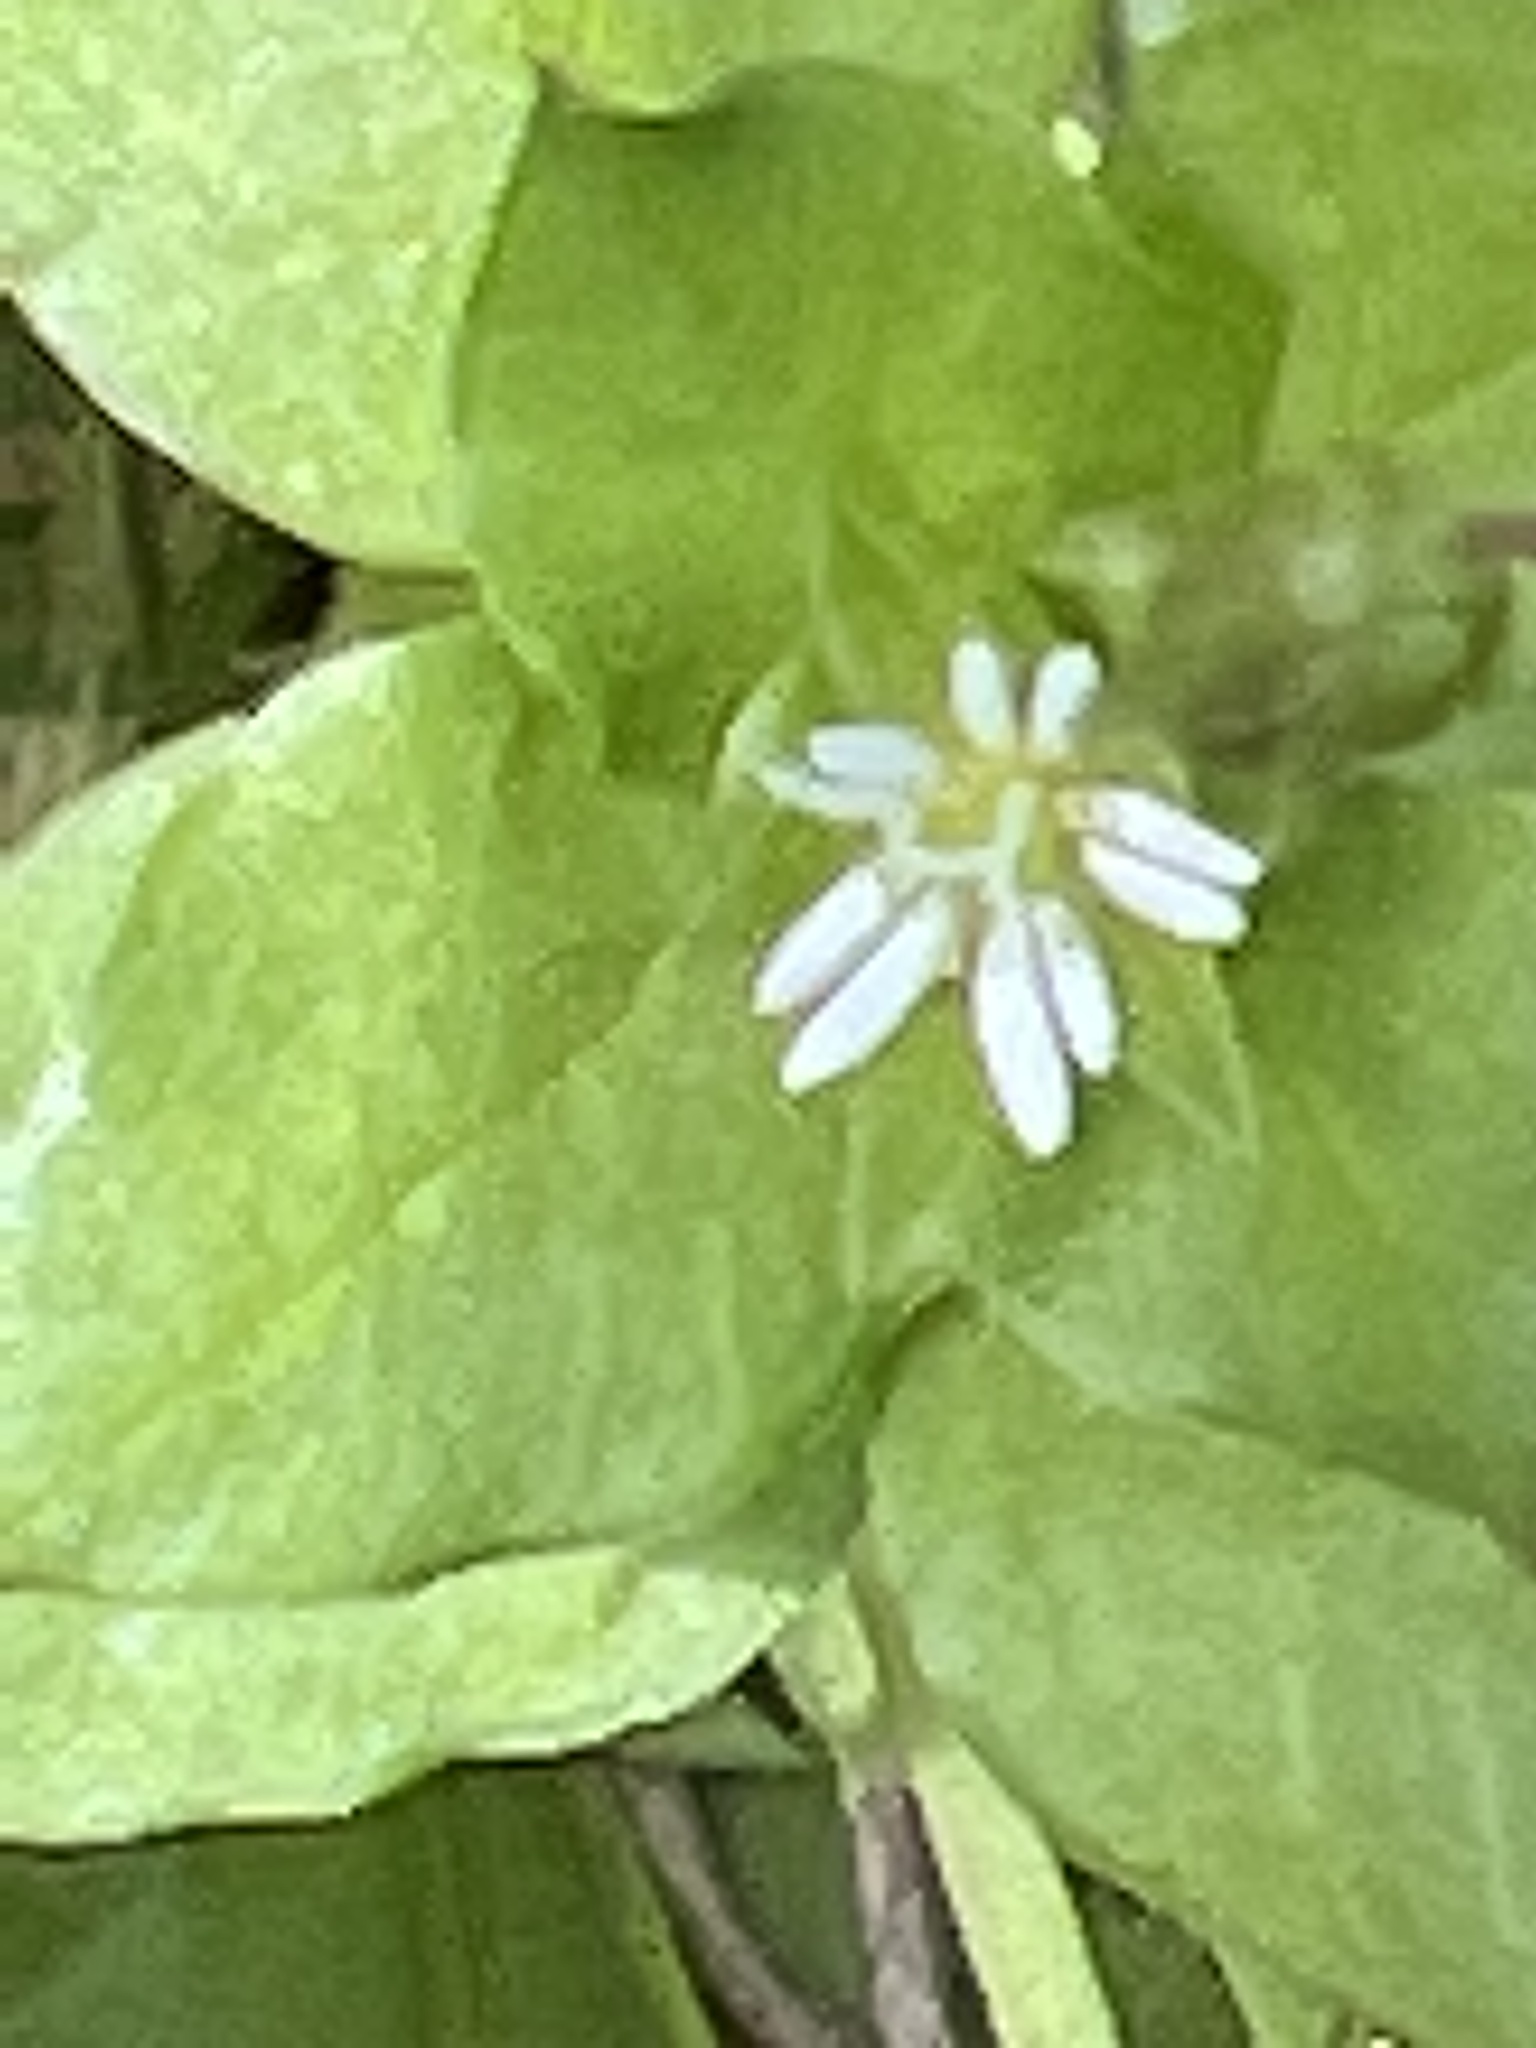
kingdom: Plantae
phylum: Tracheophyta
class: Magnoliopsida
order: Caryophyllales
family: Caryophyllaceae
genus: Stellaria
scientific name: Stellaria media
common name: Common chickweed
